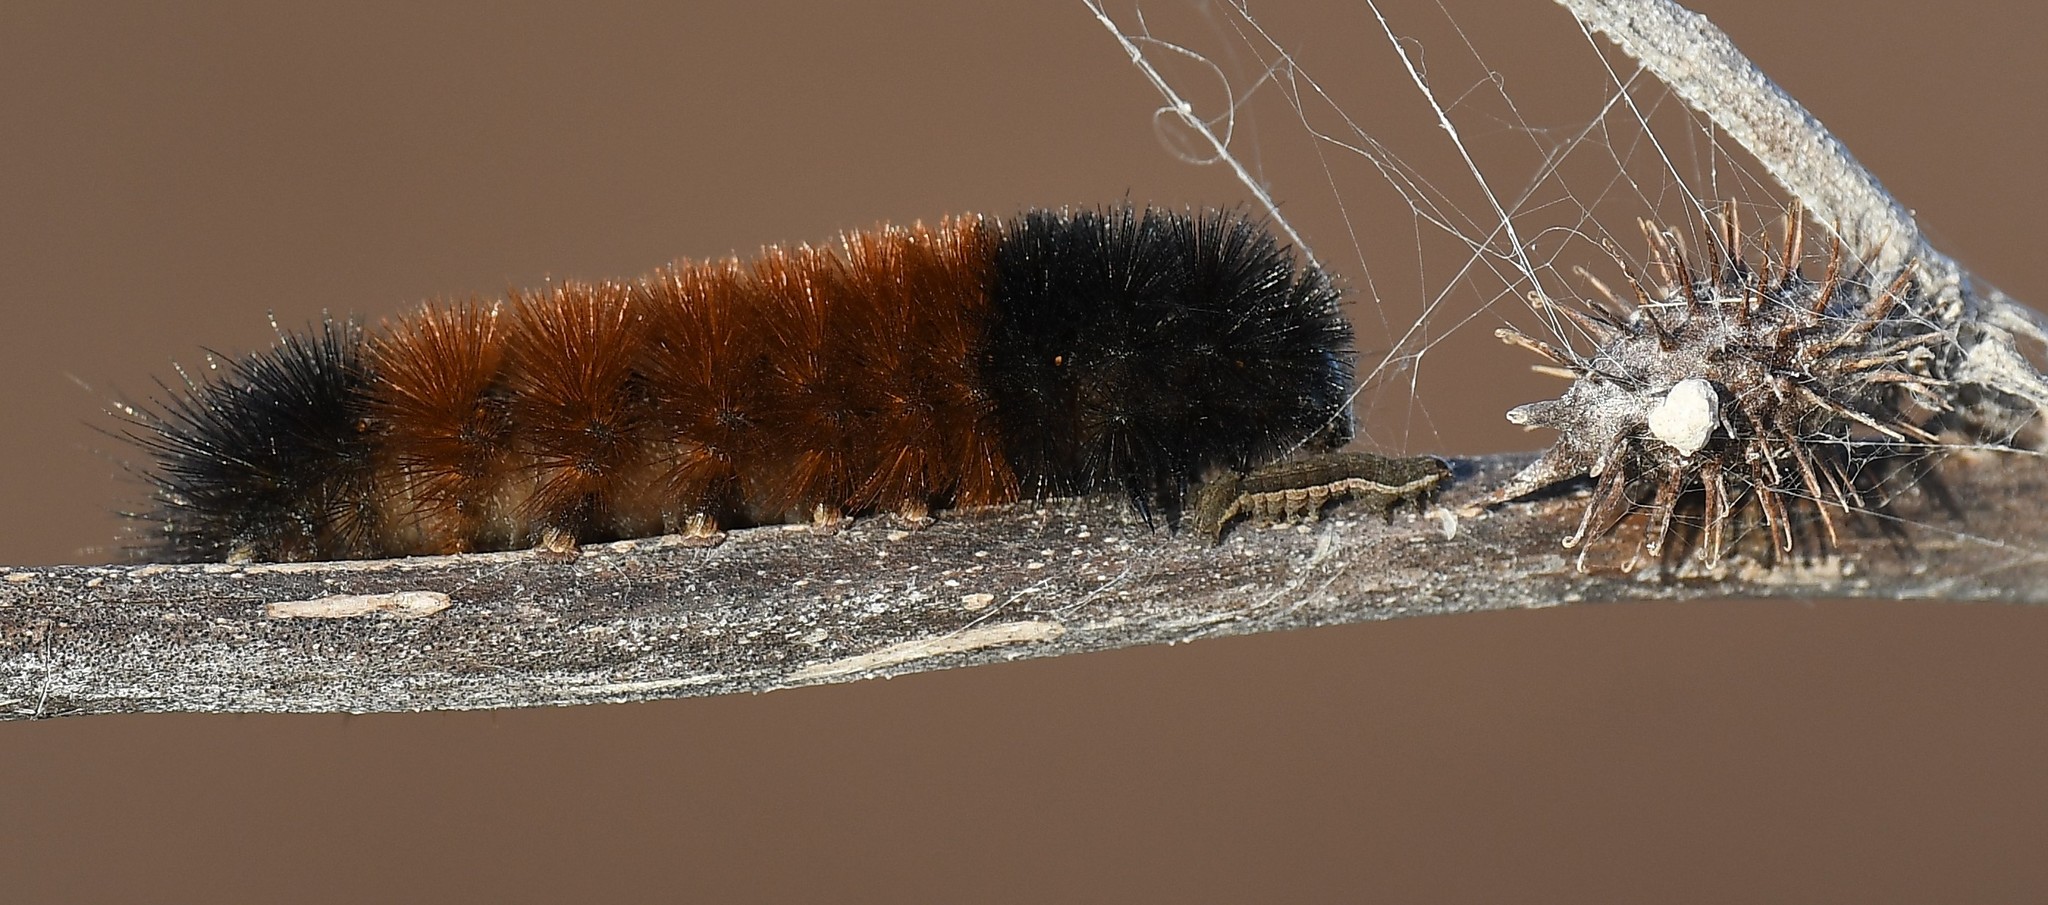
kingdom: Animalia
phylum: Arthropoda
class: Insecta
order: Lepidoptera
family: Erebidae
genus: Pyrrharctia
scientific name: Pyrrharctia isabella
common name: Isabella tiger moth
